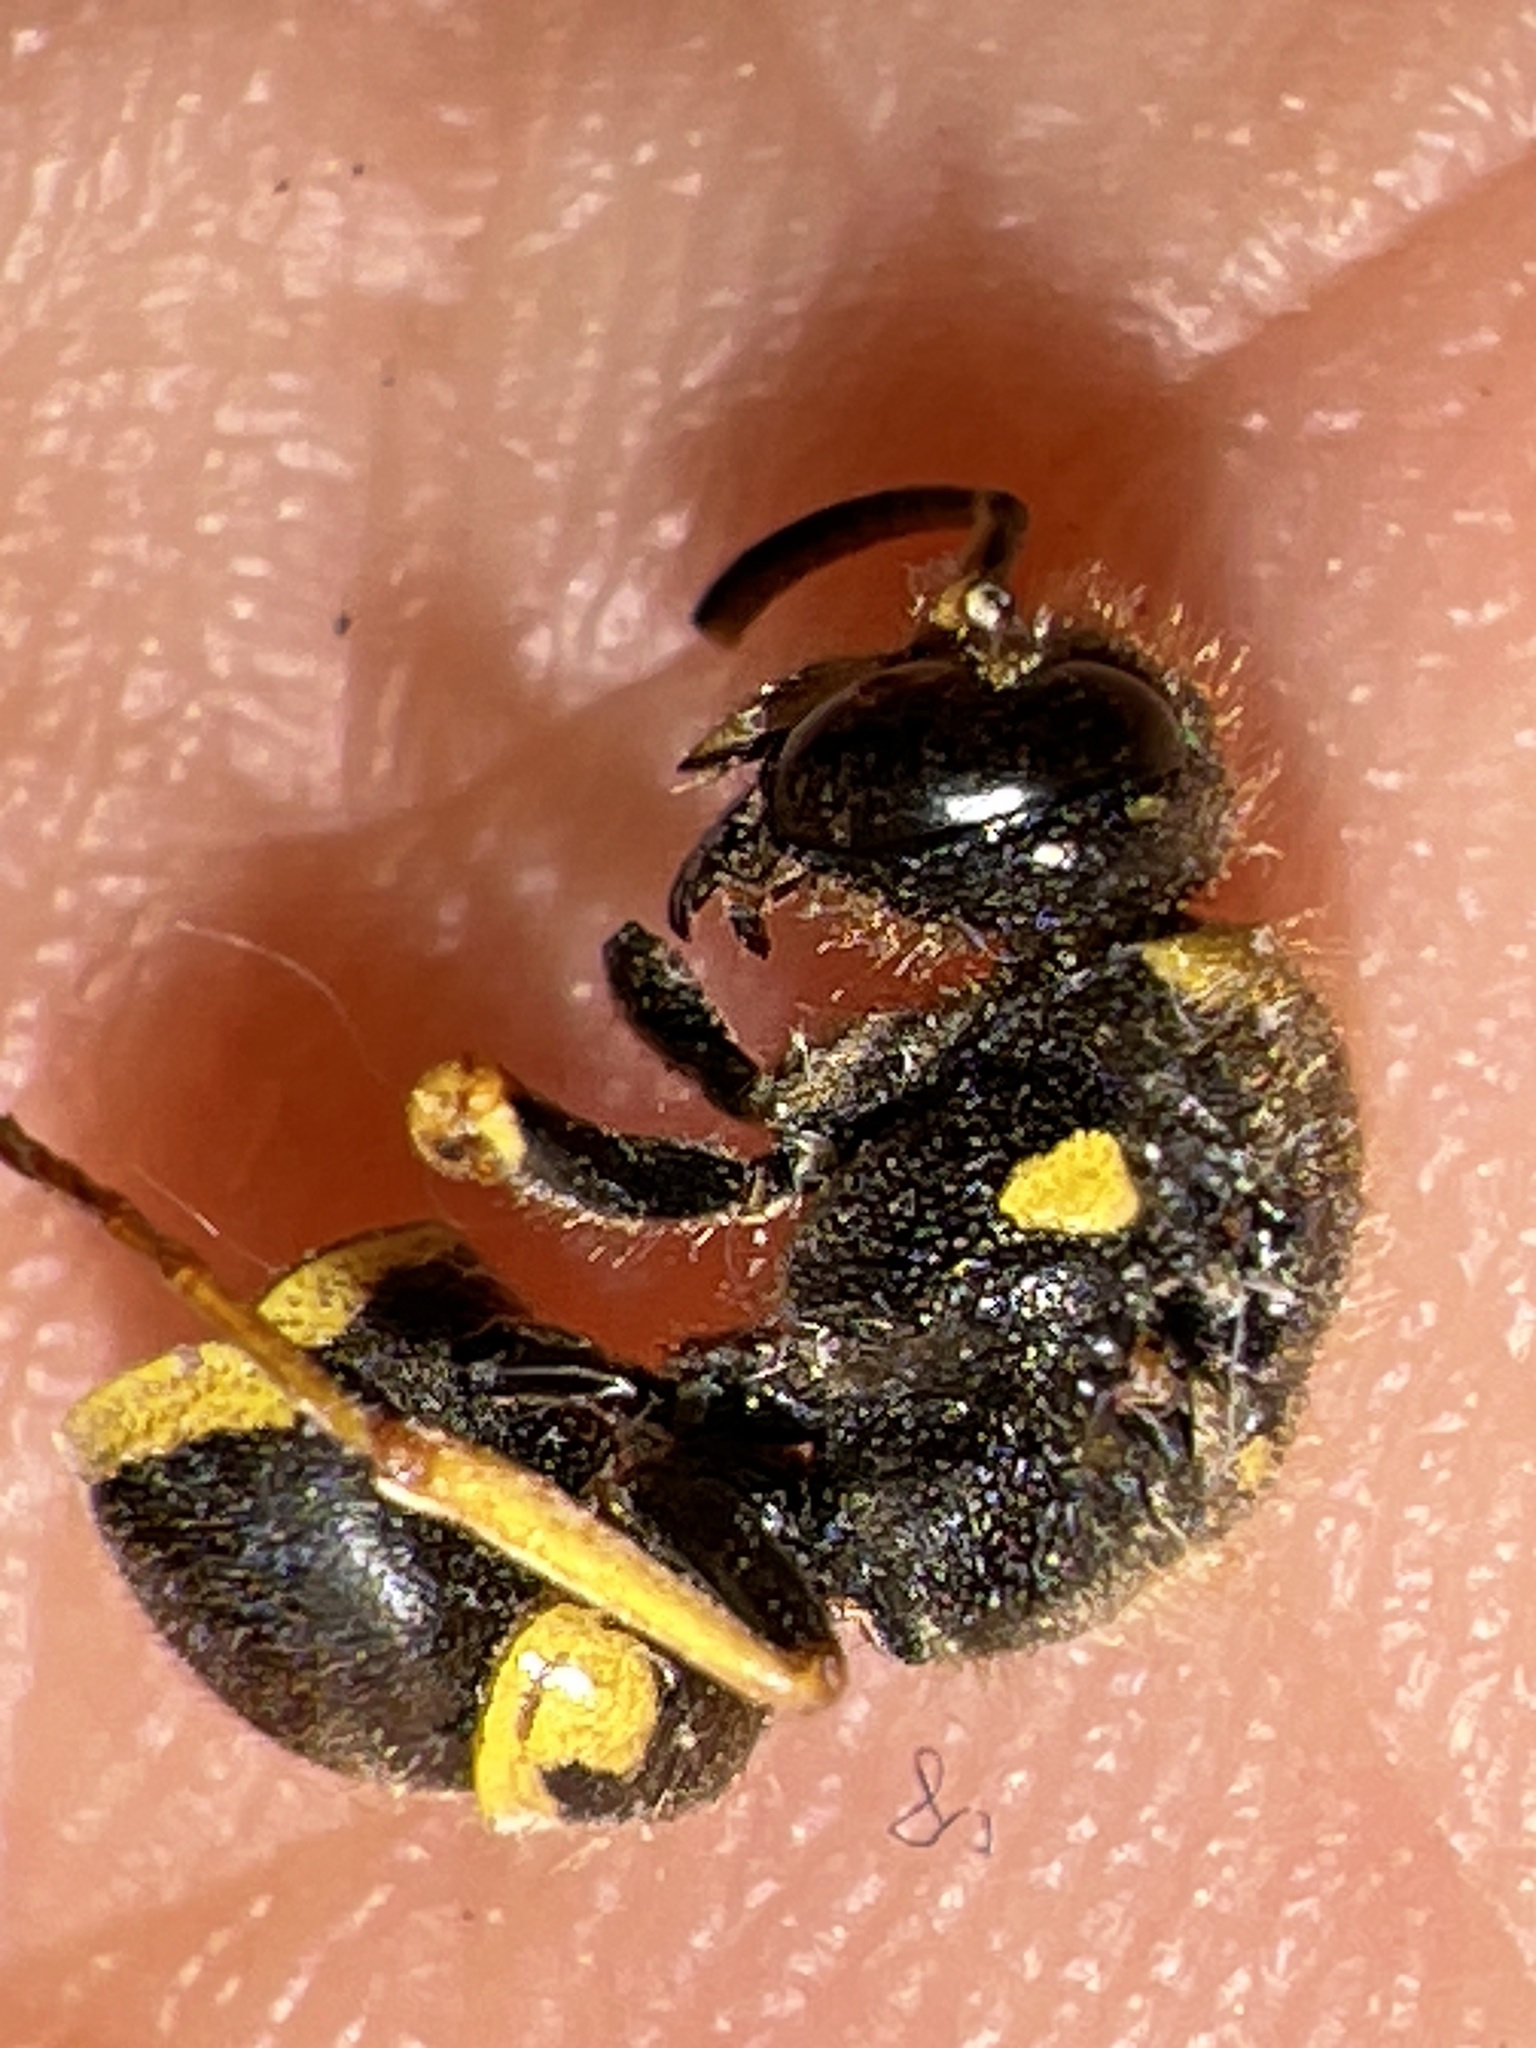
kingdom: Animalia
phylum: Arthropoda
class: Insecta
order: Hymenoptera
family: Vespidae
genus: Ancistrocerus
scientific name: Ancistrocerus campestris
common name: Smiling mason wasp
